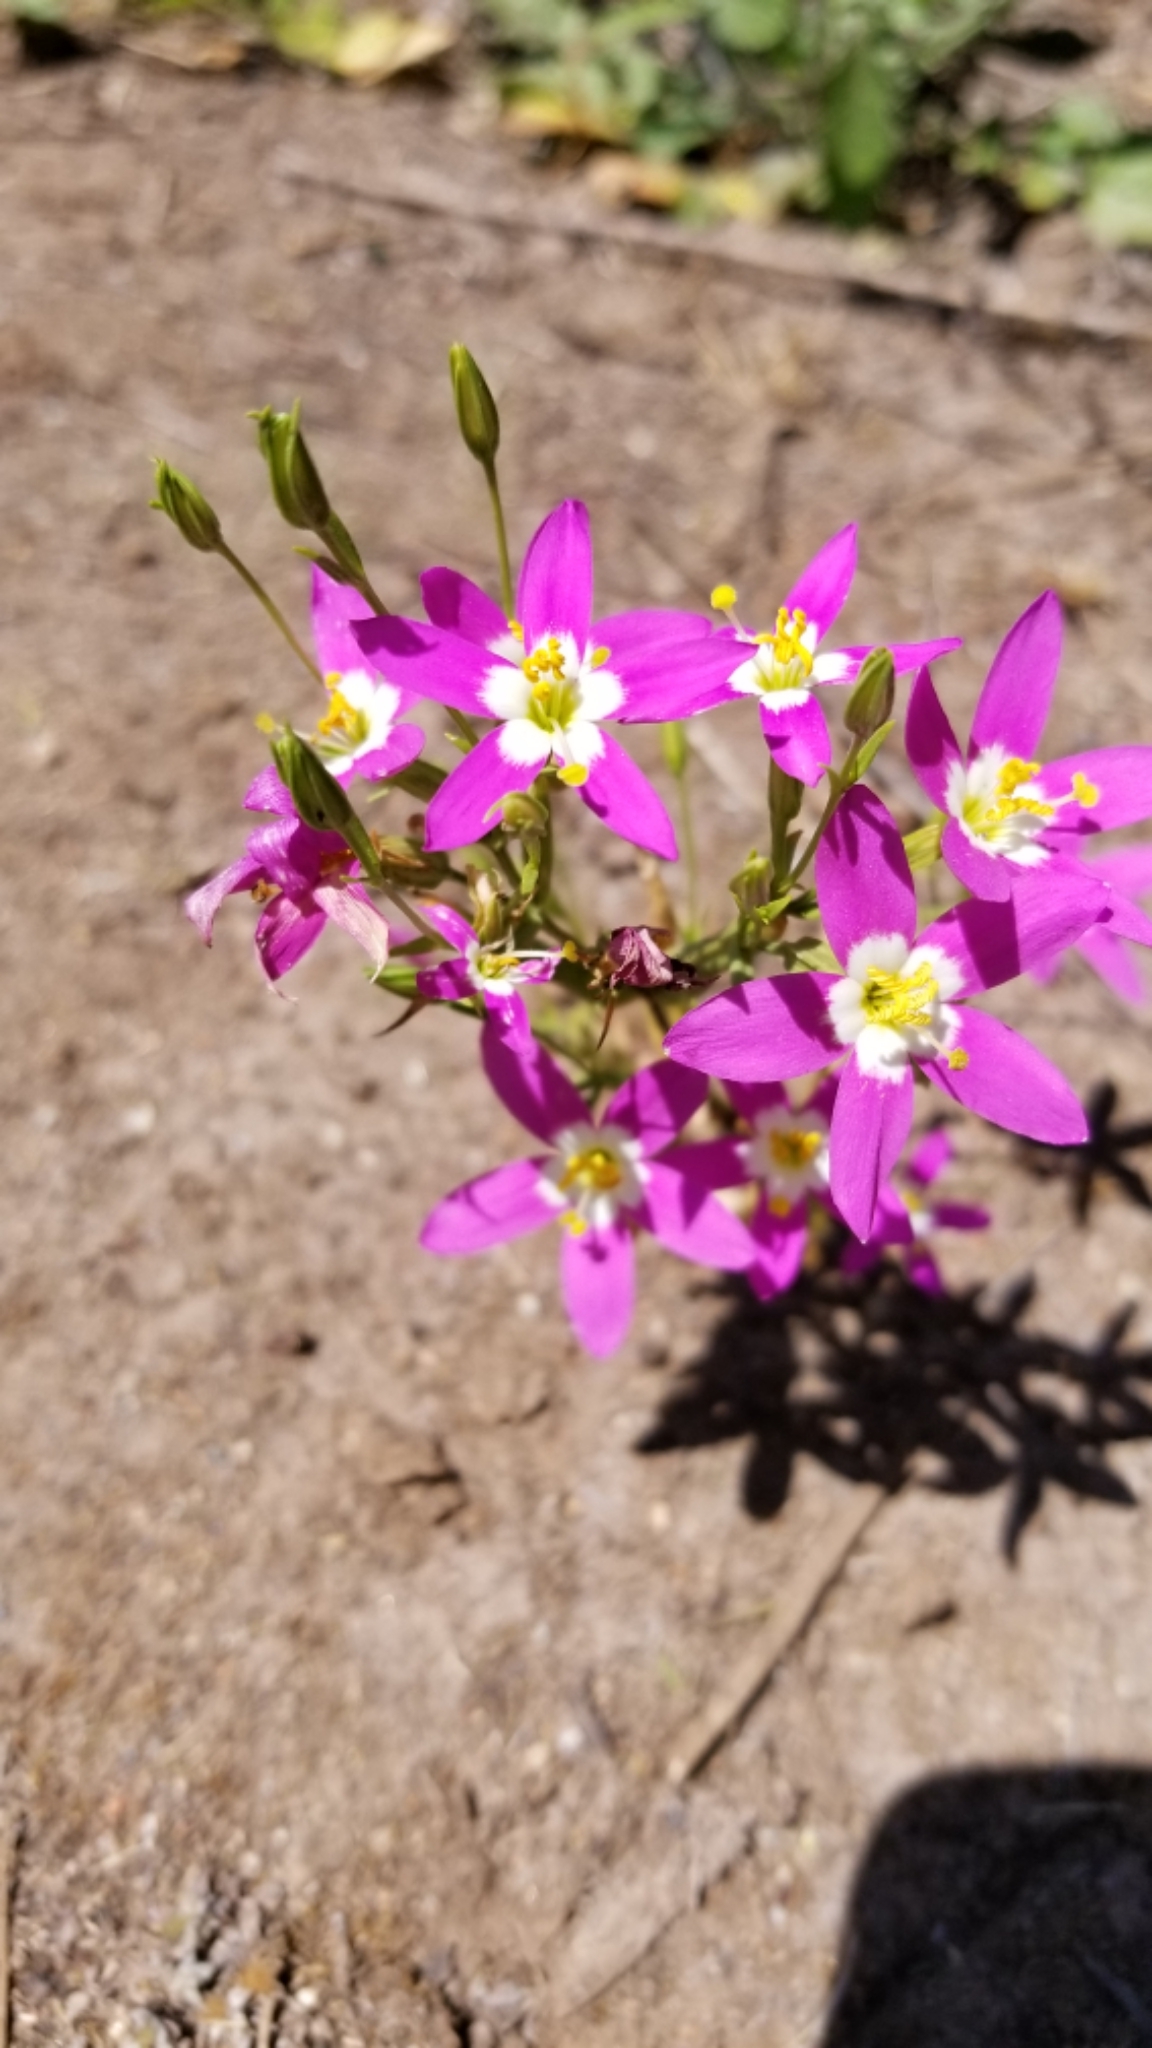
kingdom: Plantae
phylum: Tracheophyta
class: Magnoliopsida
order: Gentianales
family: Gentianaceae
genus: Zeltnera
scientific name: Zeltnera venusta
